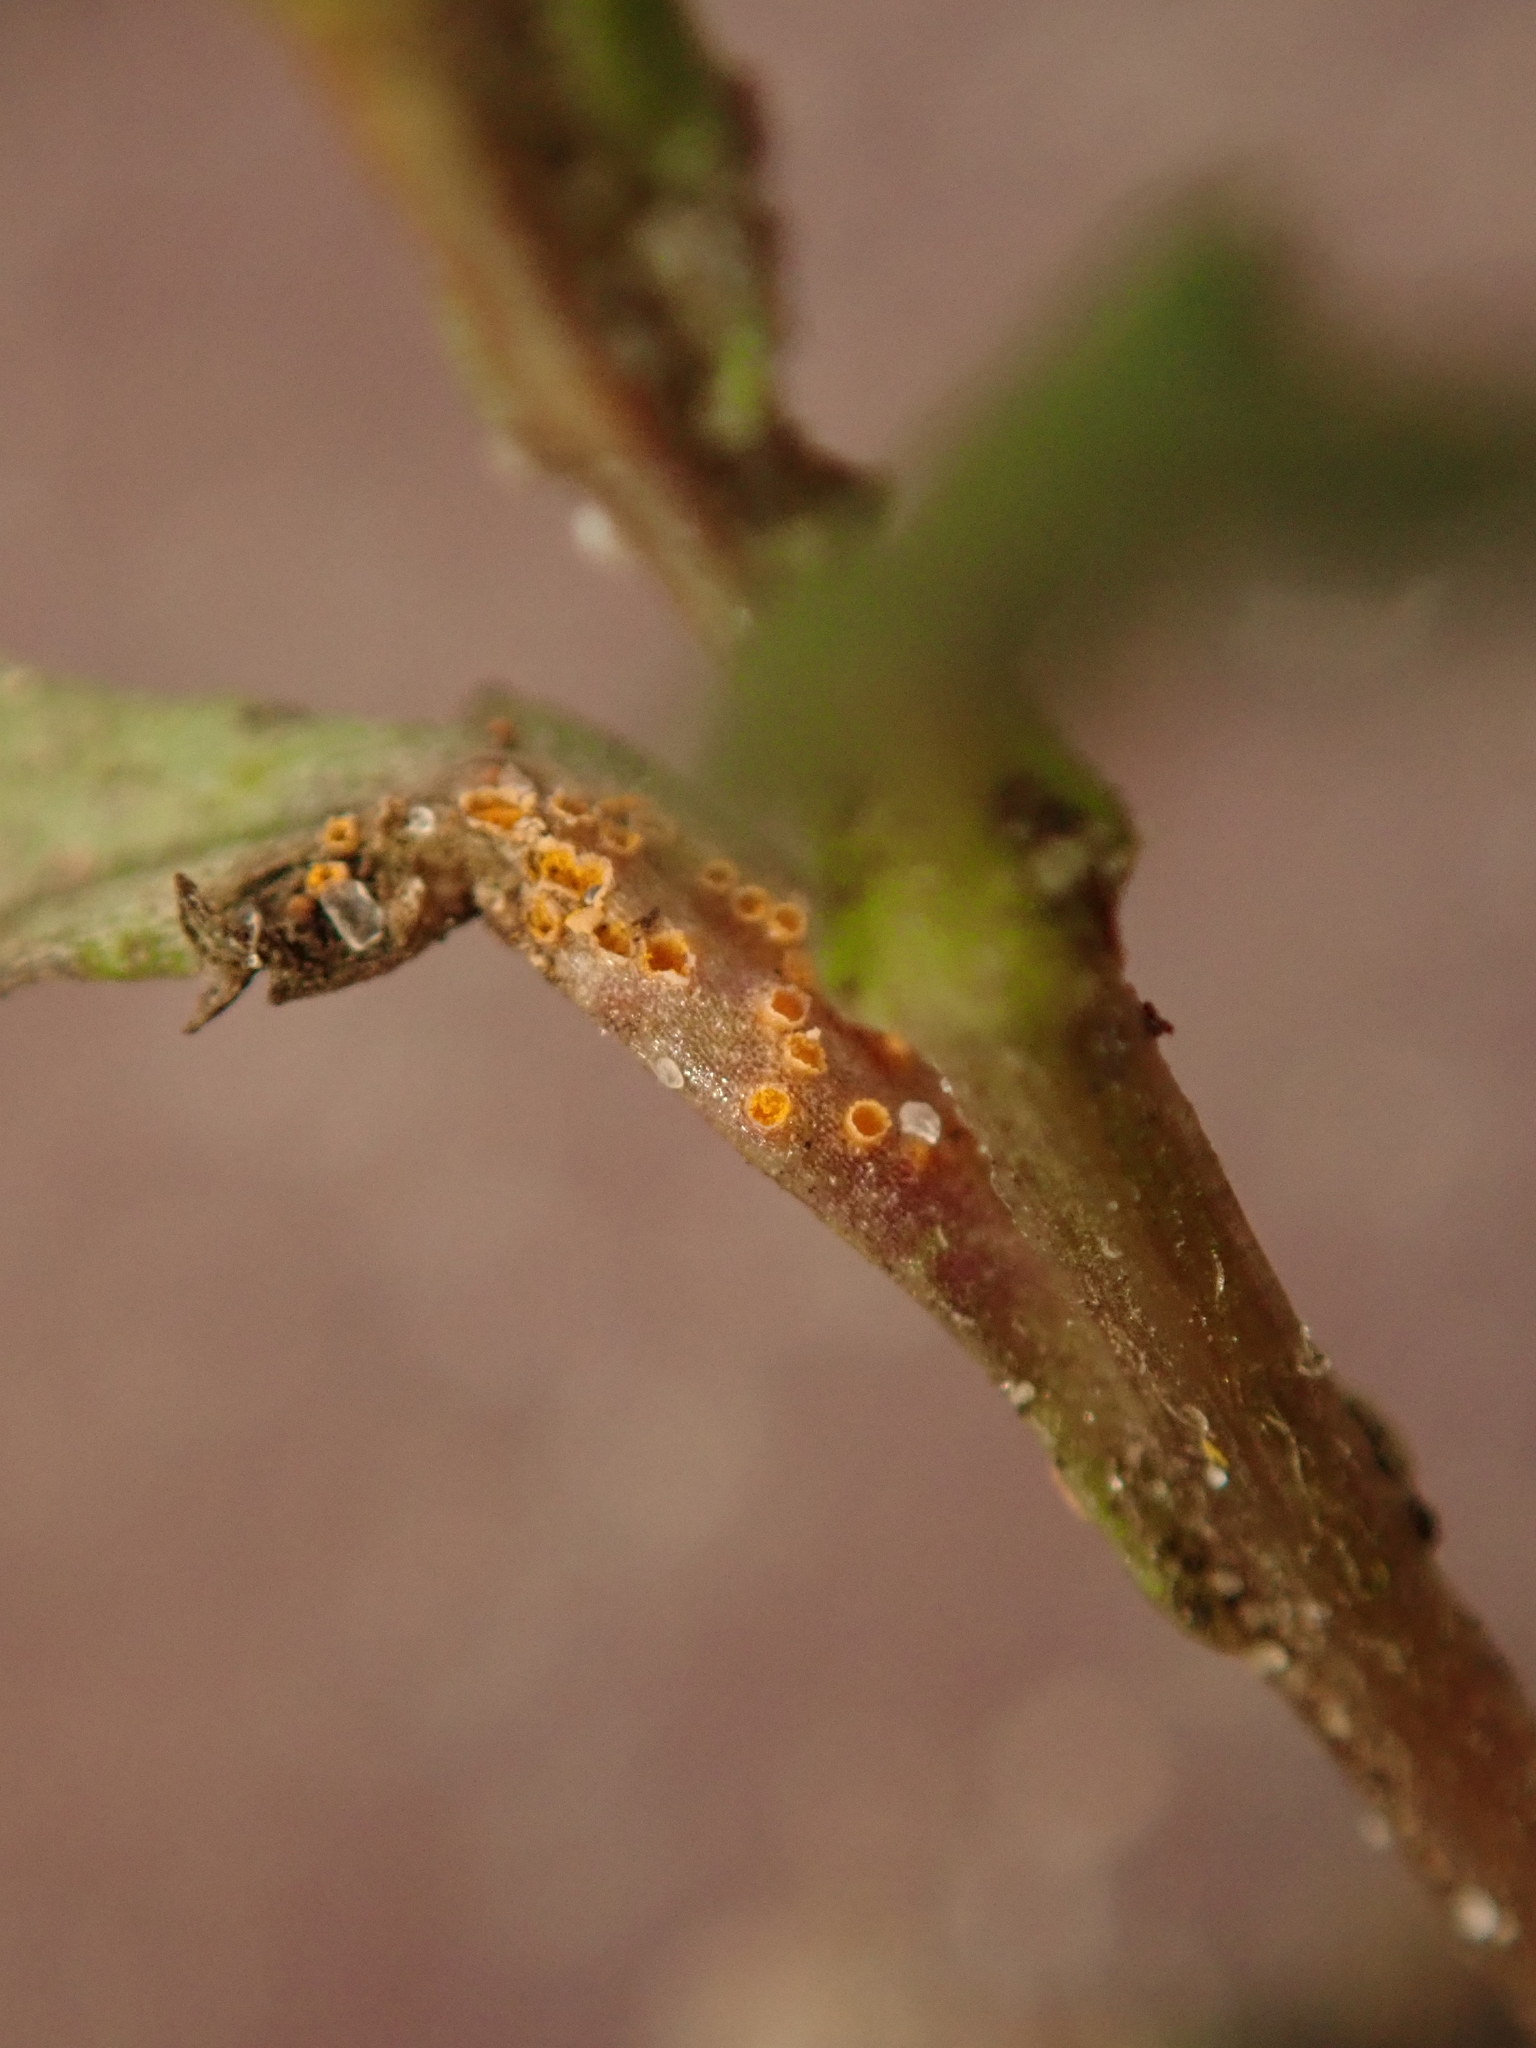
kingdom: Fungi
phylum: Basidiomycota
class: Pucciniomycetes
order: Pucciniales
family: Pucciniaceae
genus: Puccinia
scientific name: Puccinia lagenophorae
